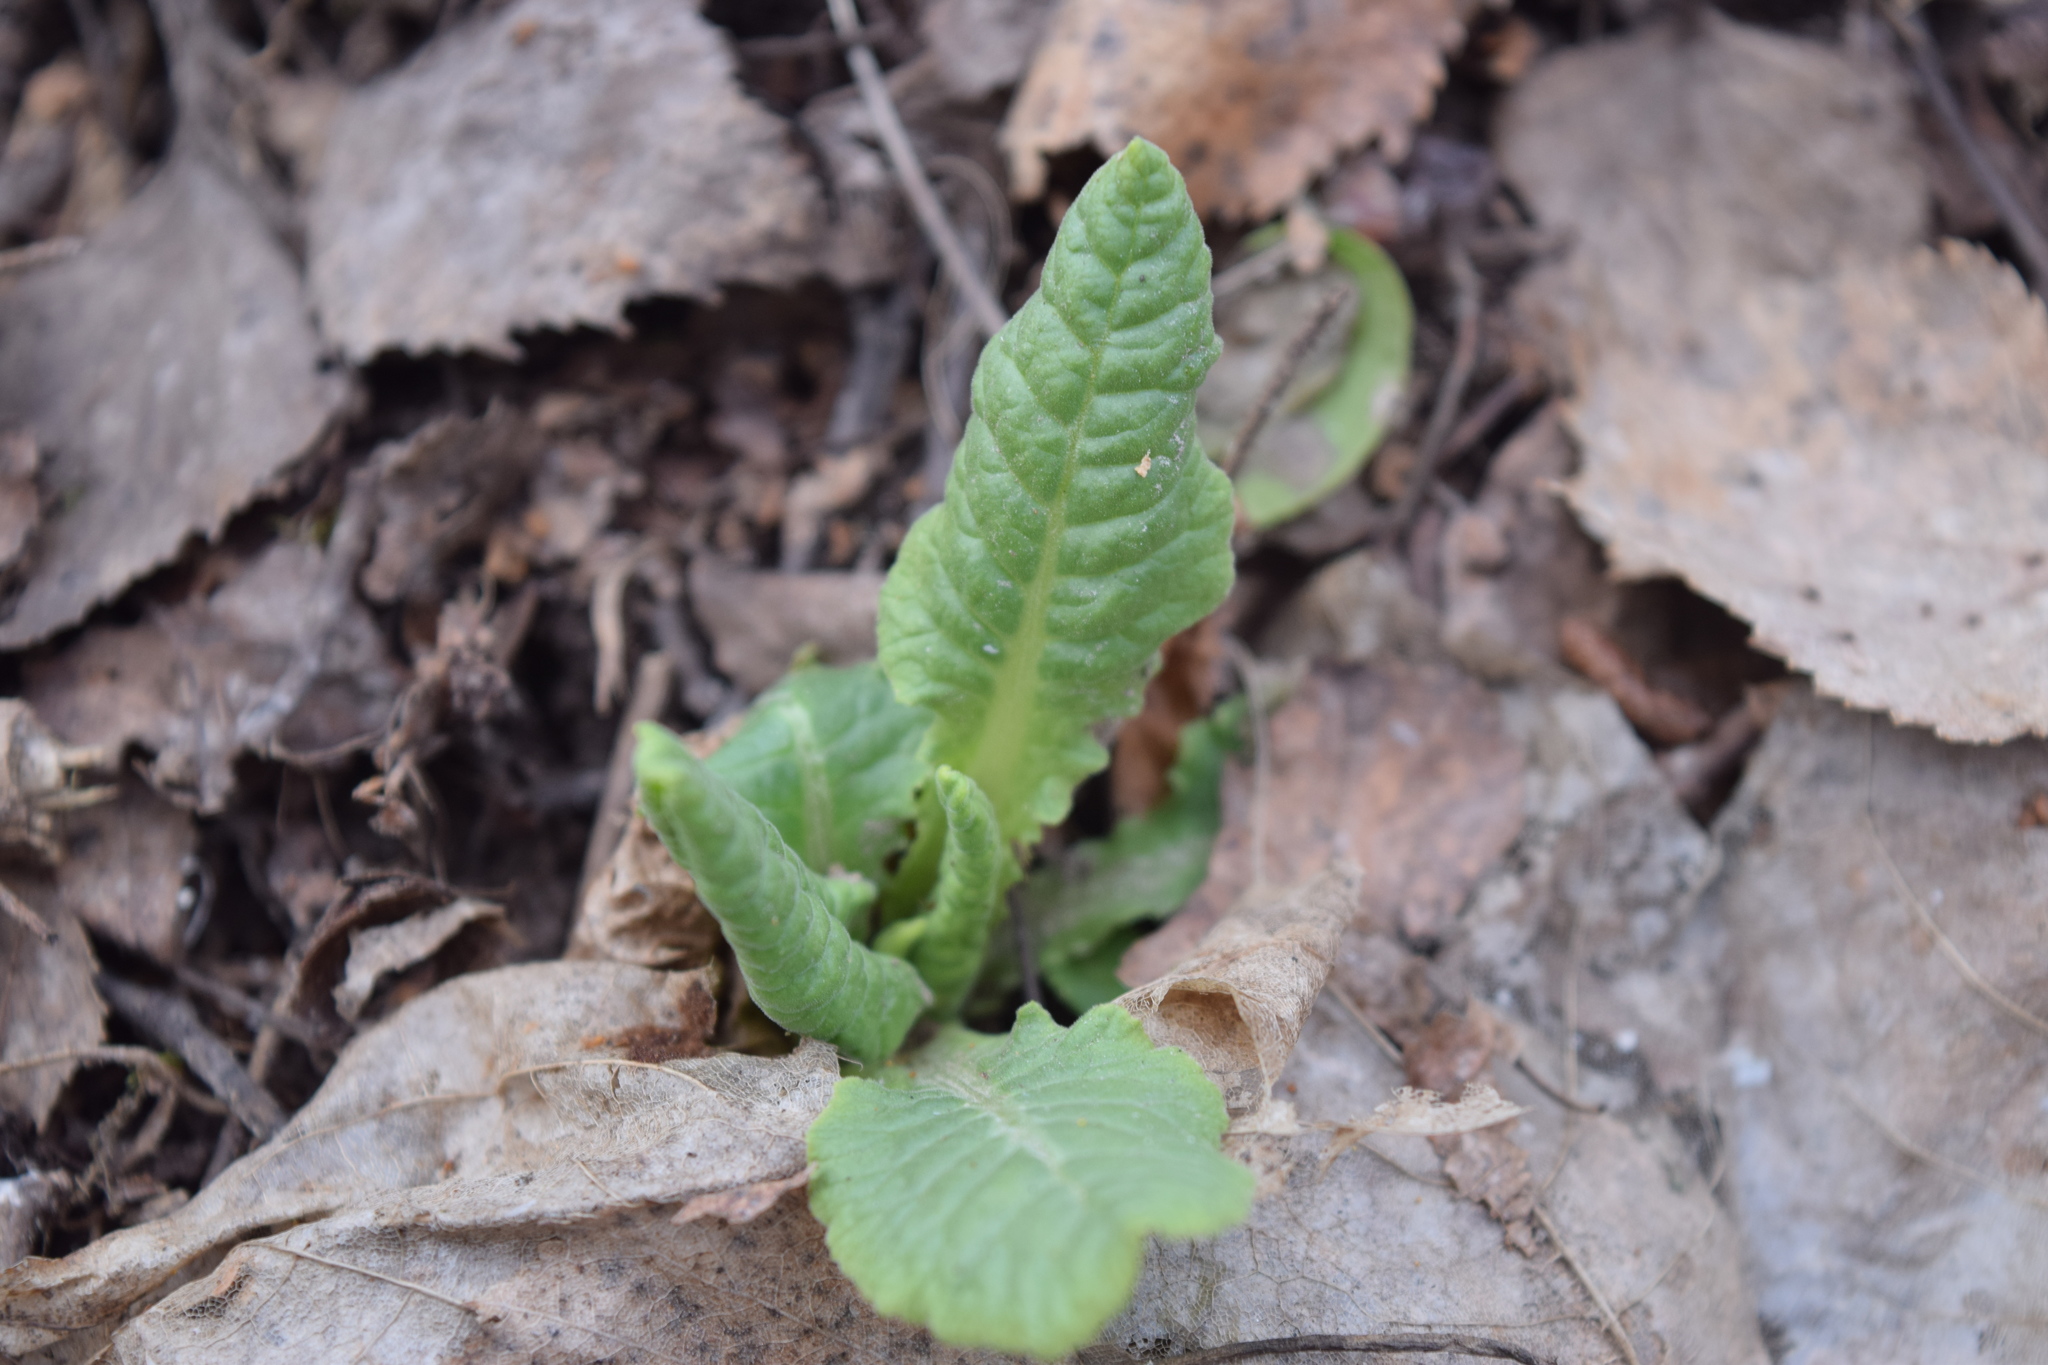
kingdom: Plantae
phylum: Tracheophyta
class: Magnoliopsida
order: Ericales
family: Primulaceae
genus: Primula
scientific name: Primula veris
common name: Cowslip
